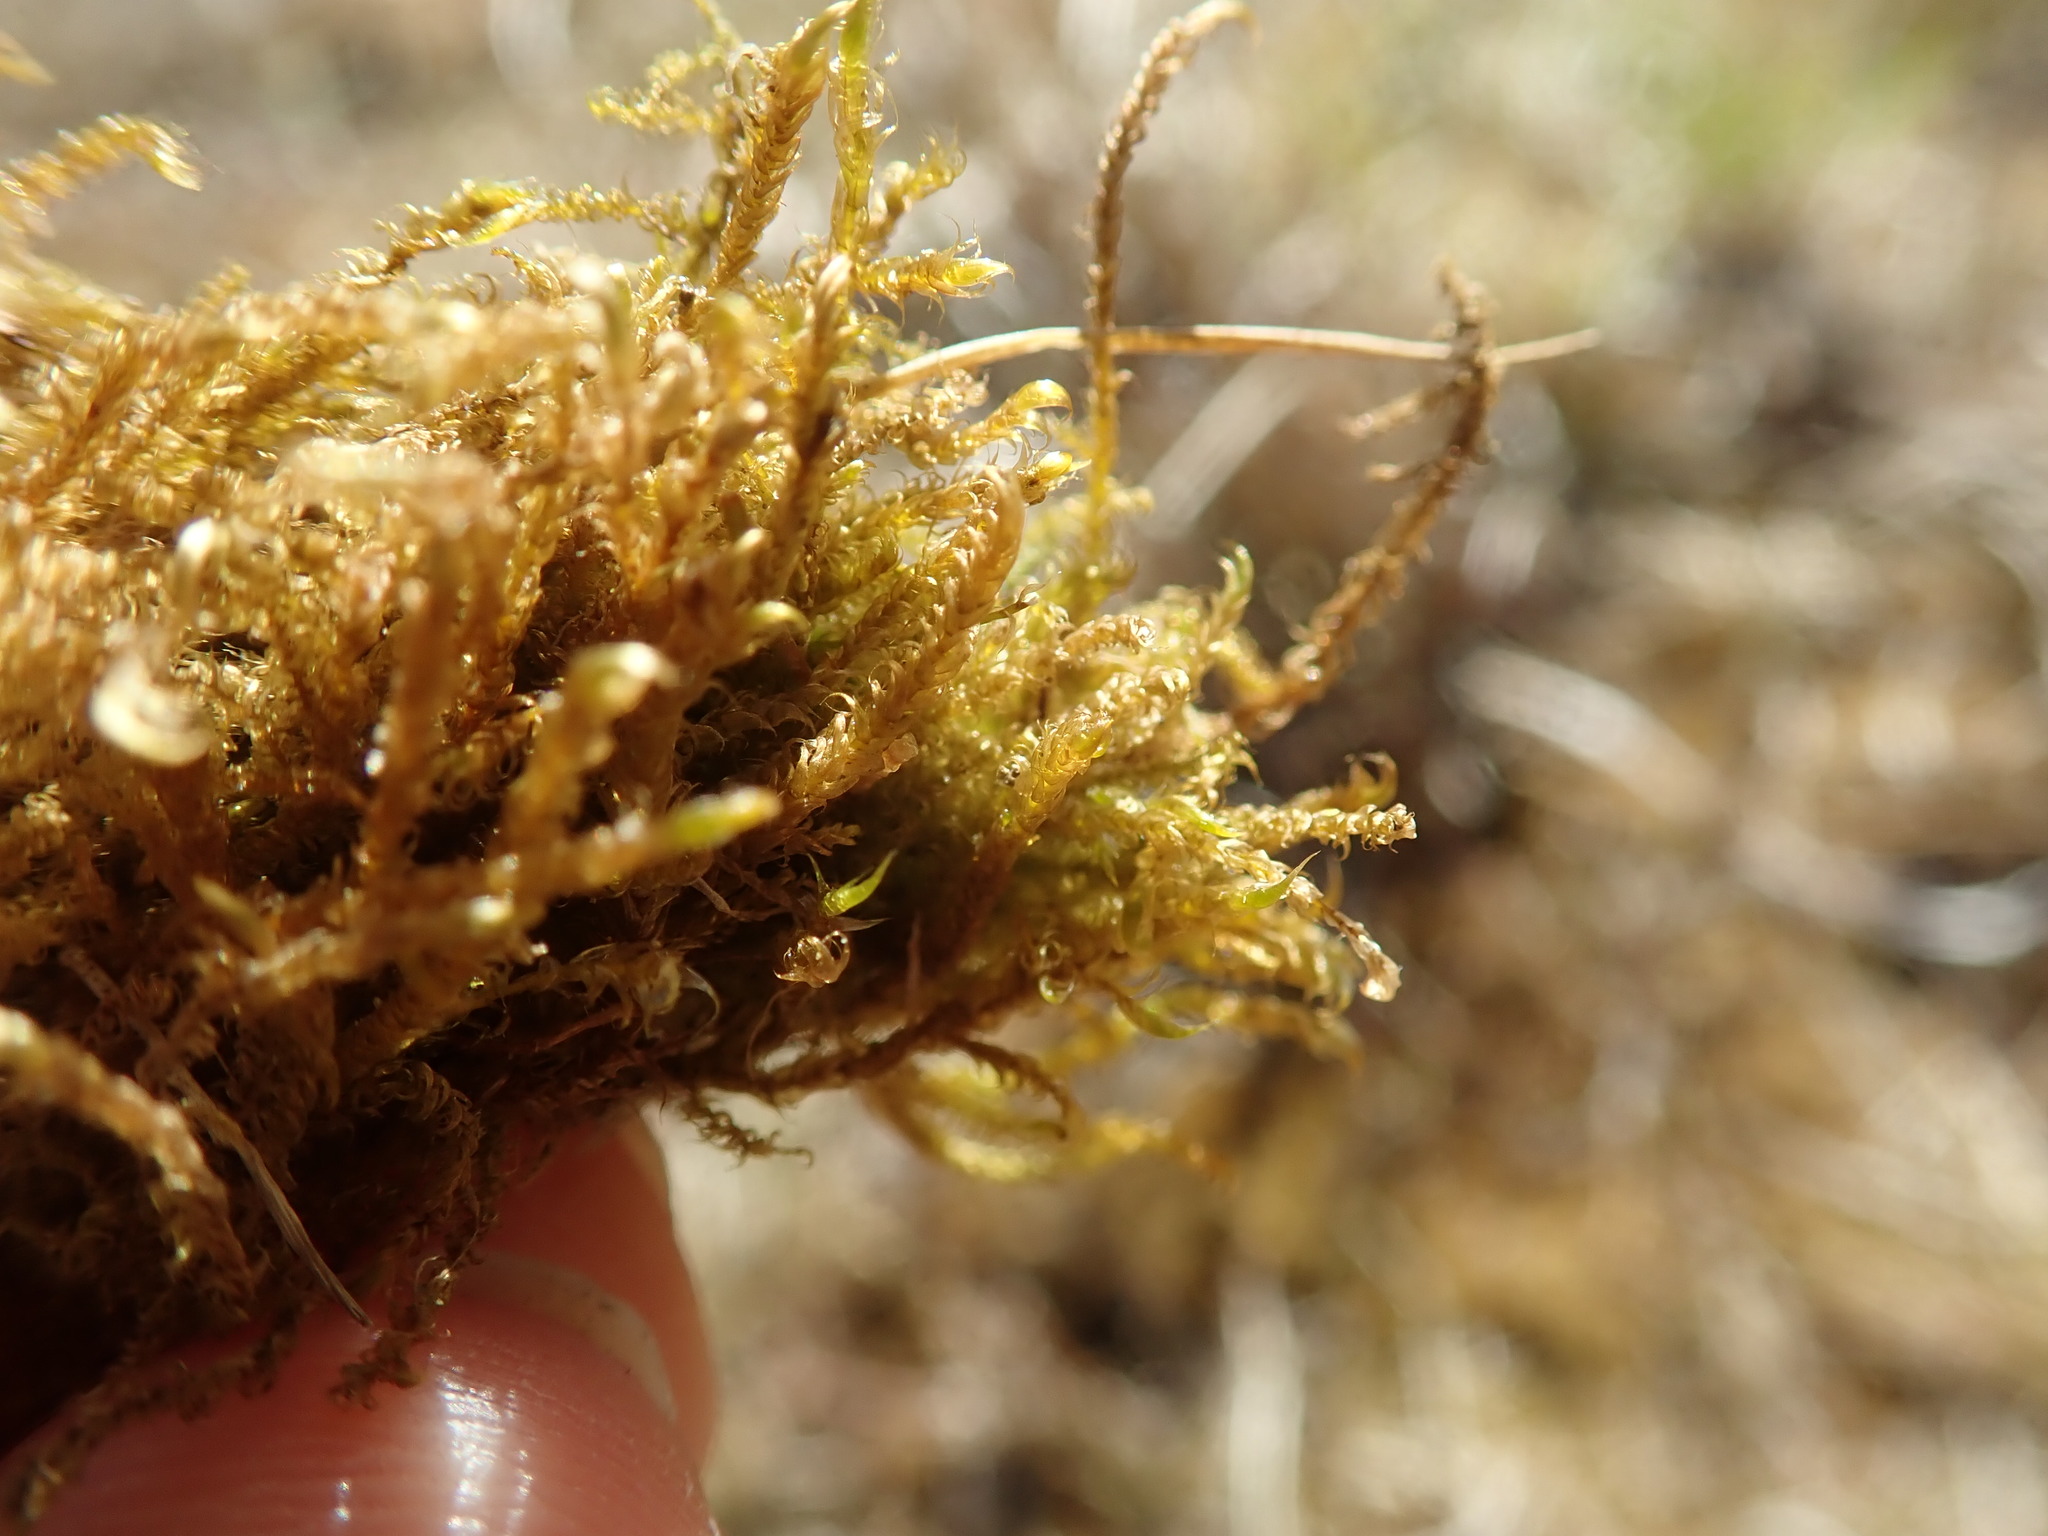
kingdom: Plantae
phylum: Bryophyta
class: Bryopsida
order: Hypnales
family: Scorpidiaceae
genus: Sanionia
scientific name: Sanionia uncinata
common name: Sickle moss
